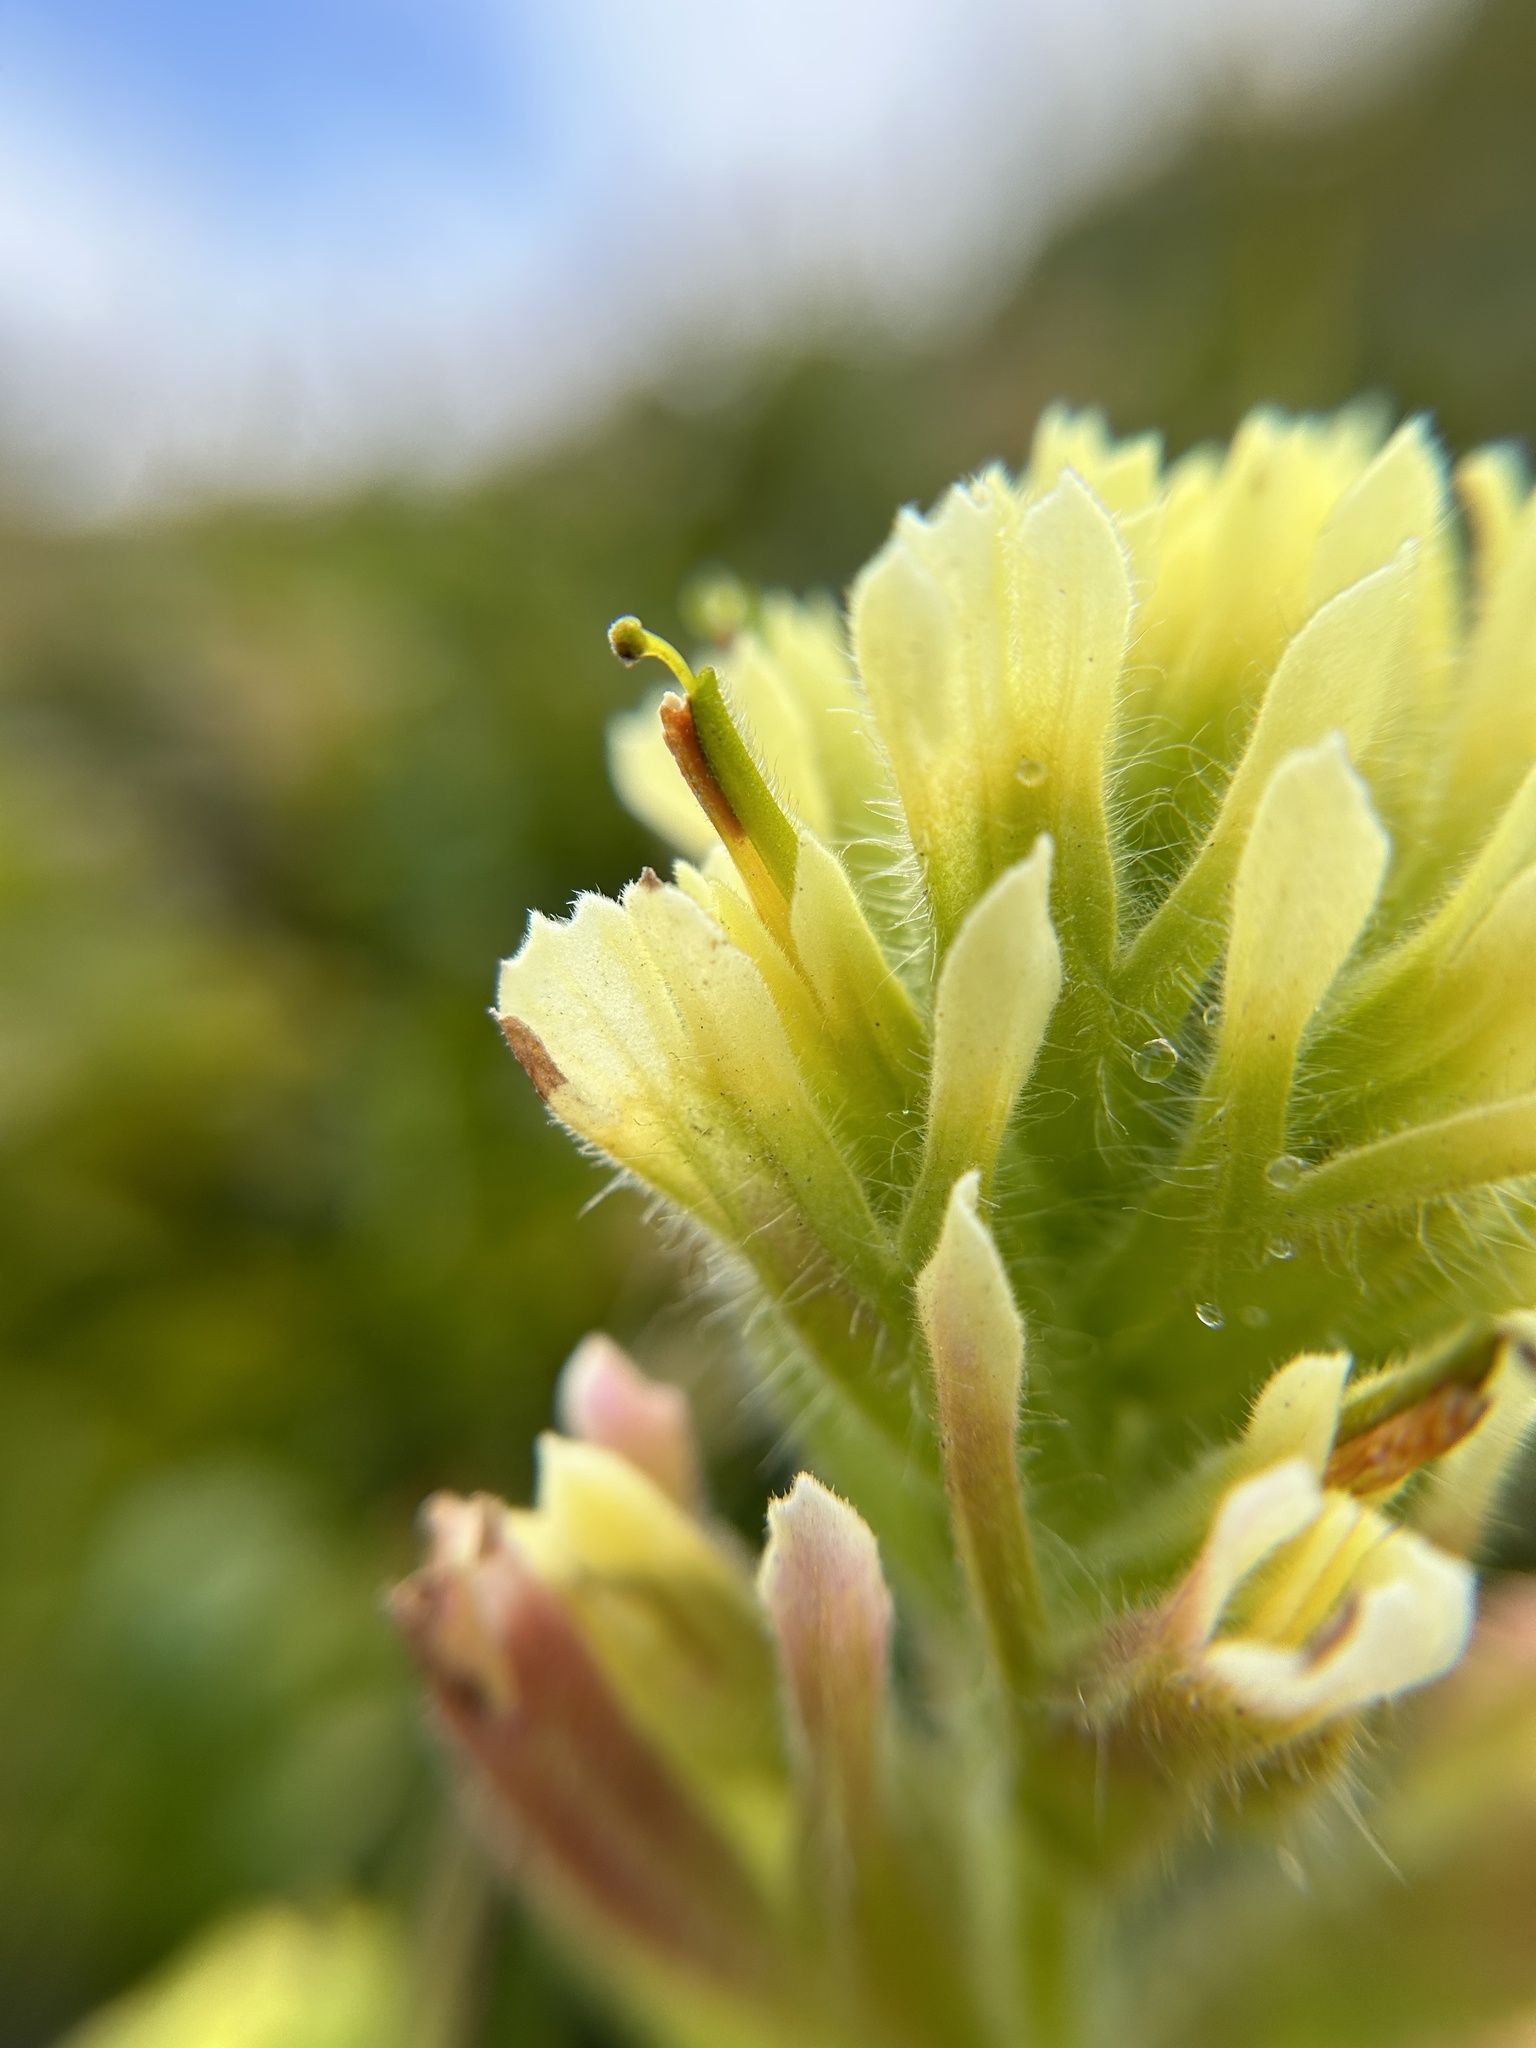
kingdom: Plantae
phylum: Tracheophyta
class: Magnoliopsida
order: Lamiales
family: Orobanchaceae
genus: Castilleja
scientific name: Castilleja affinis
